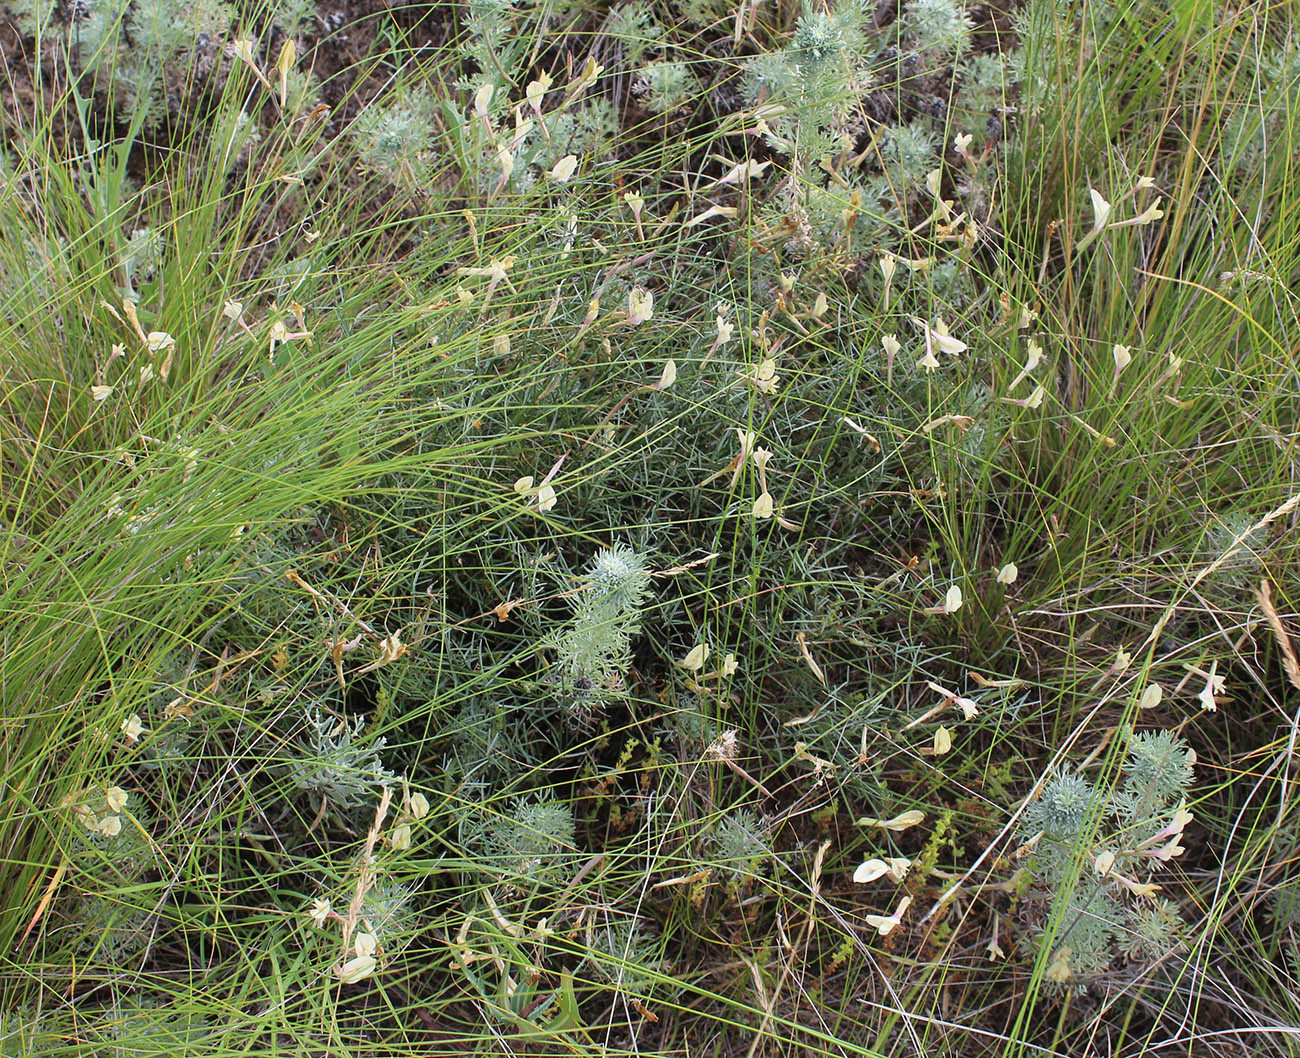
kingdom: Plantae
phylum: Tracheophyta
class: Magnoliopsida
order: Fabales
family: Fabaceae
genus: Astragalus
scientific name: Astragalus ucrainicus
